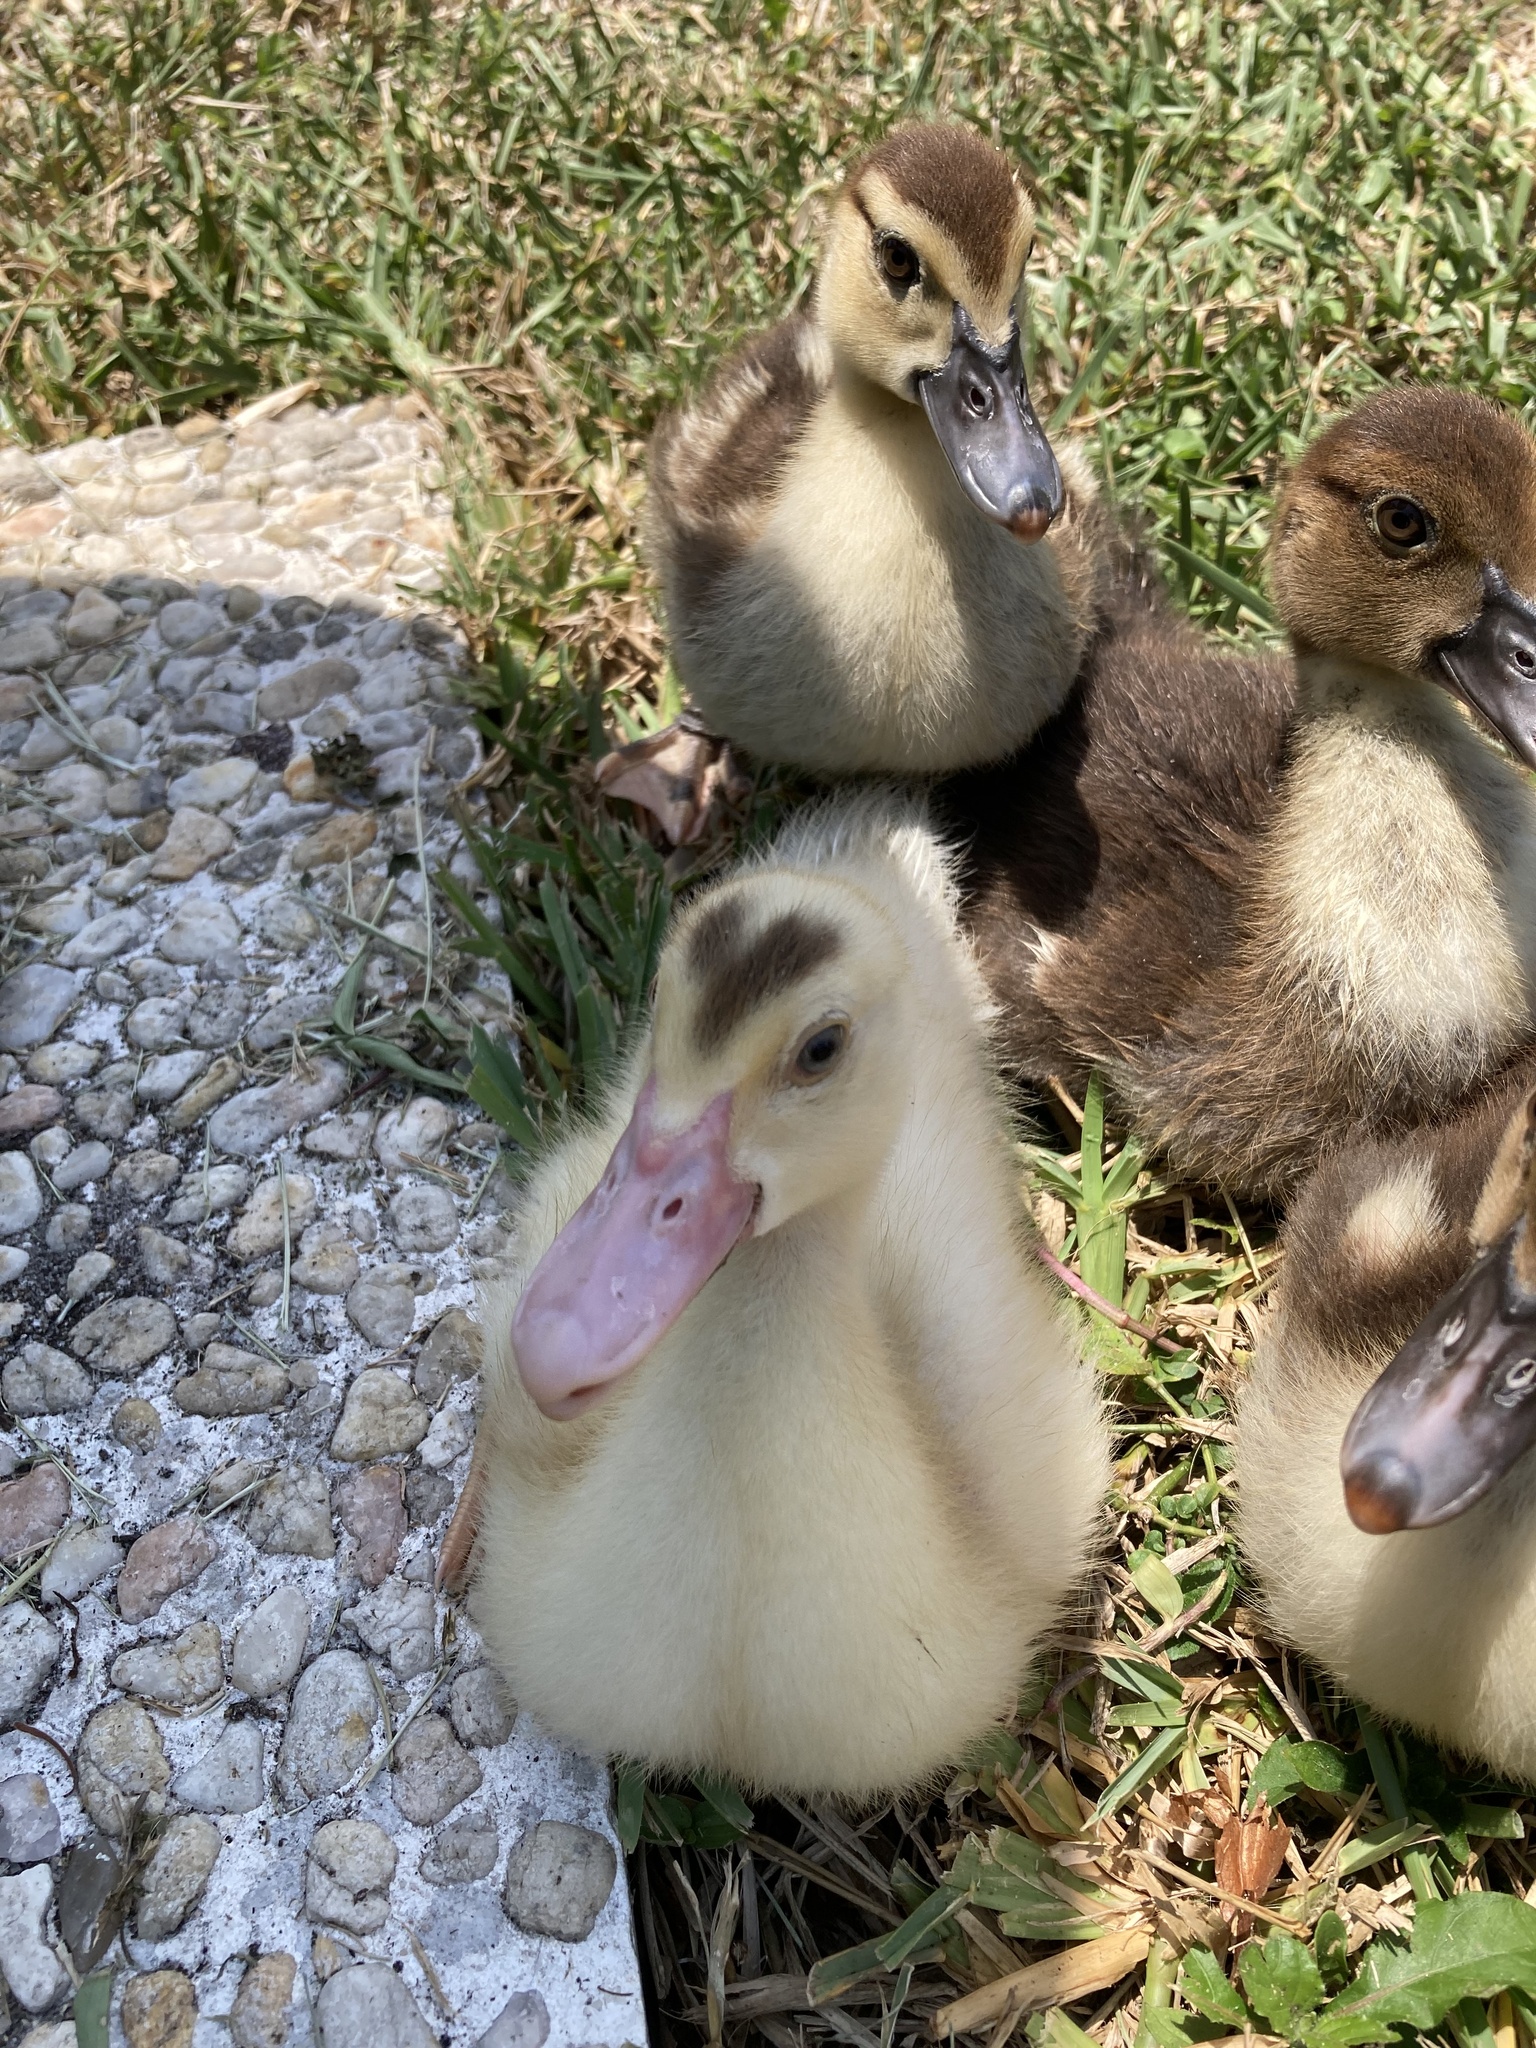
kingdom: Animalia
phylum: Chordata
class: Aves
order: Anseriformes
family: Anatidae
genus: Cairina
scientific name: Cairina moschata
